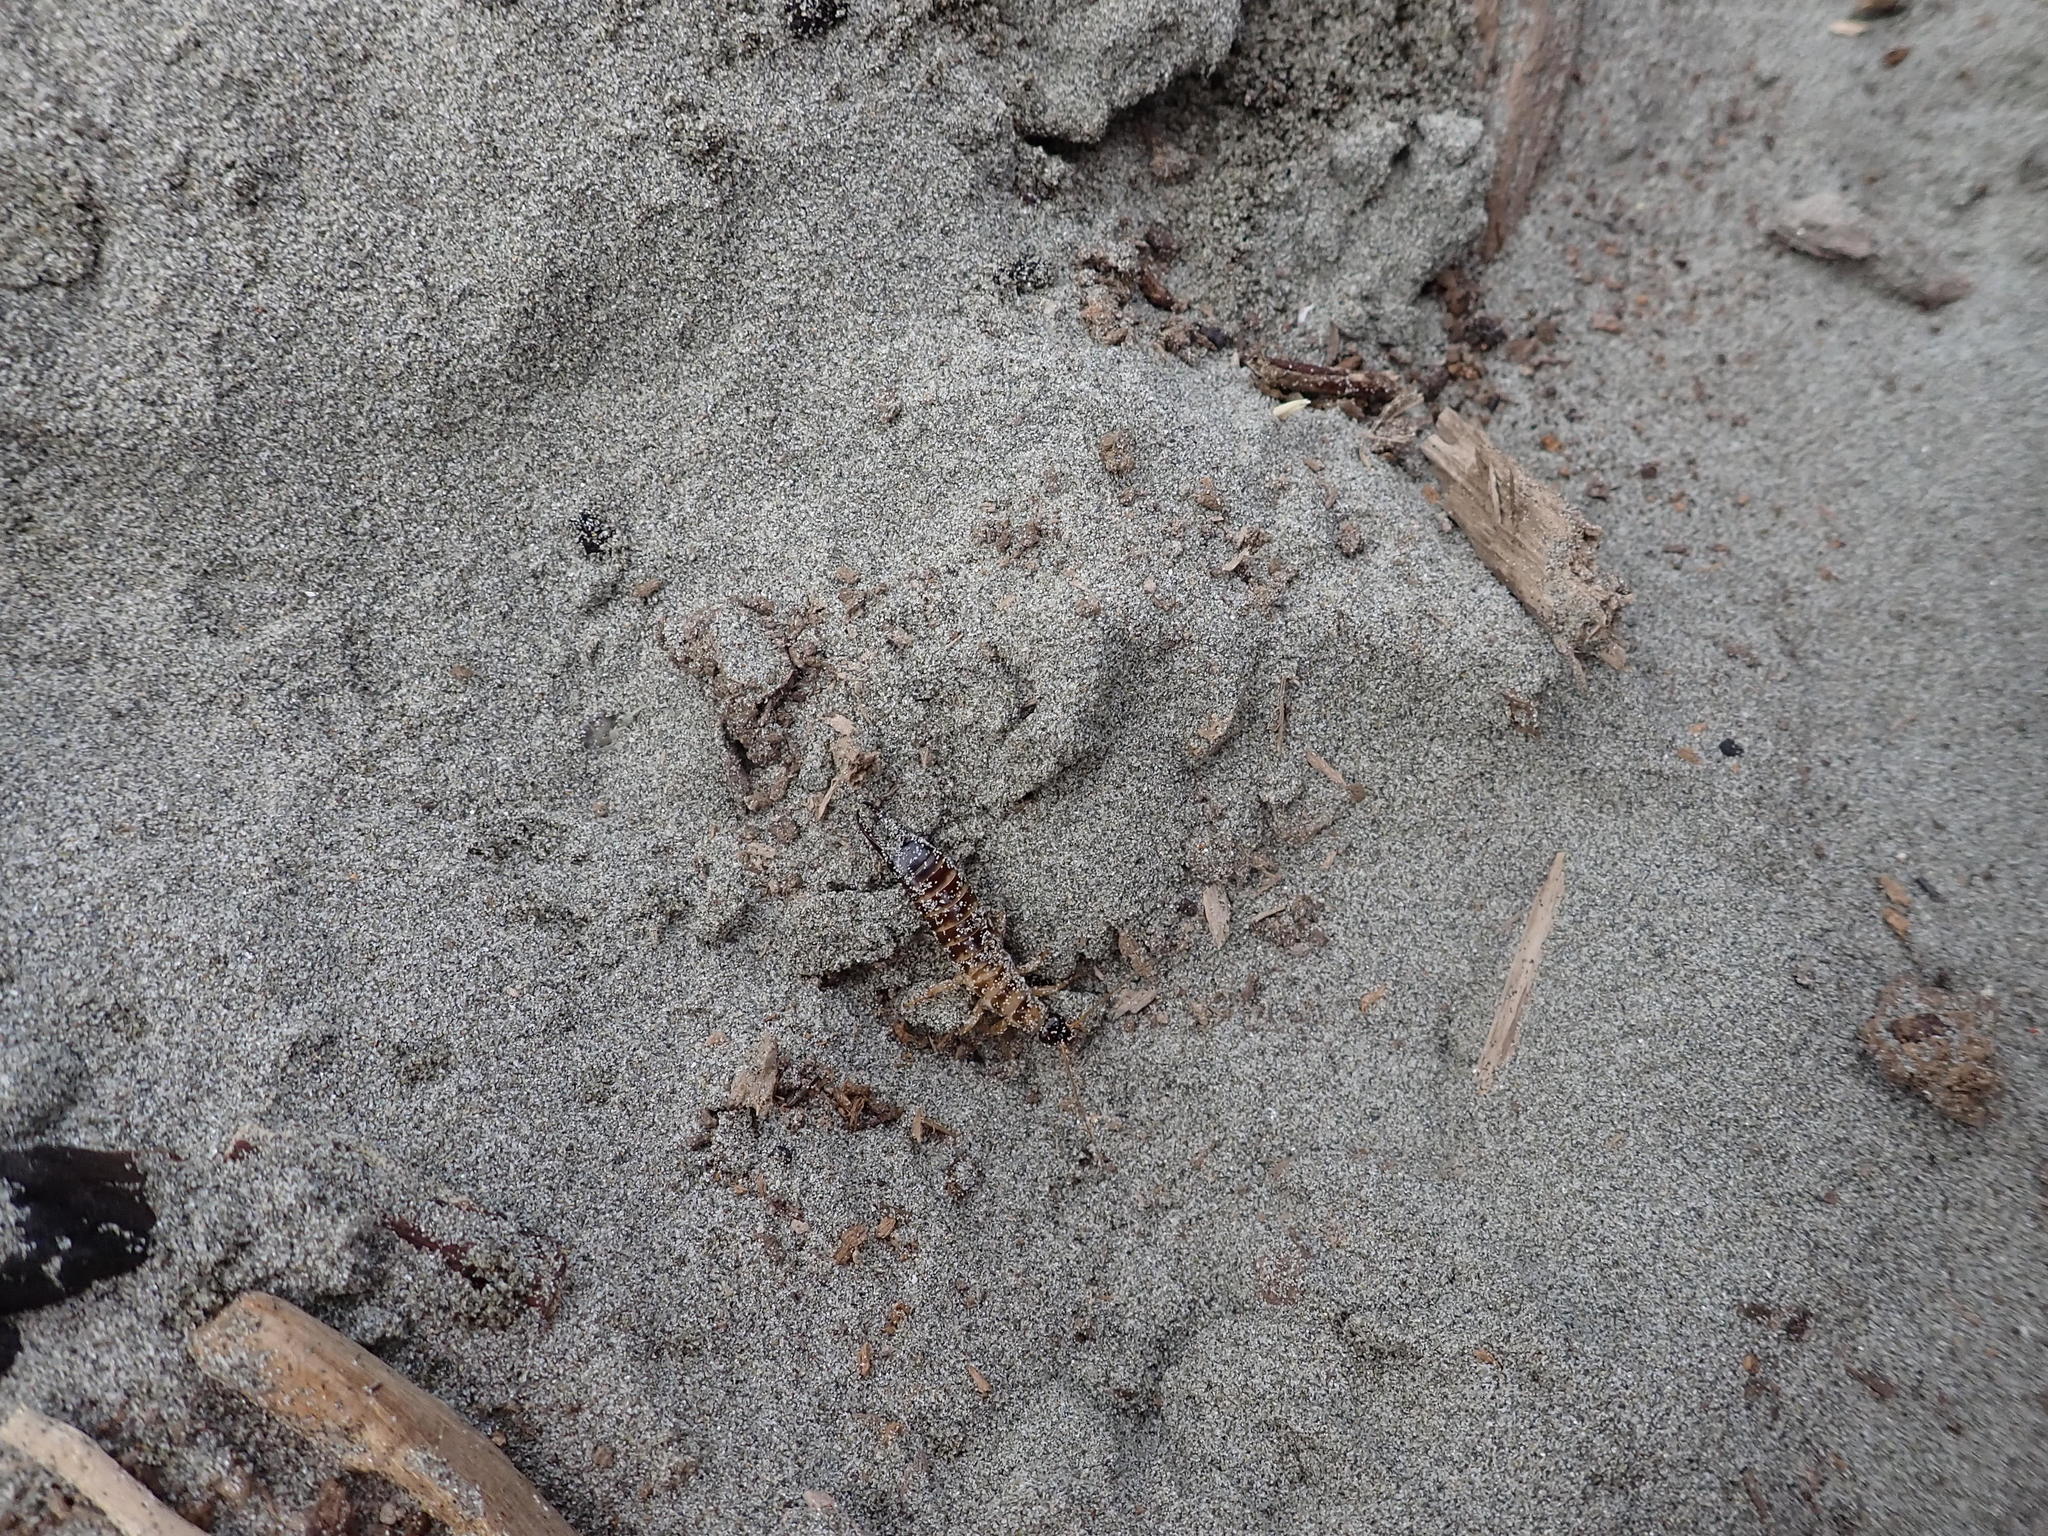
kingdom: Animalia
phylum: Arthropoda
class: Insecta
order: Dermaptera
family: Anisolabididae
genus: Anisolabis
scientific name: Anisolabis littorea
